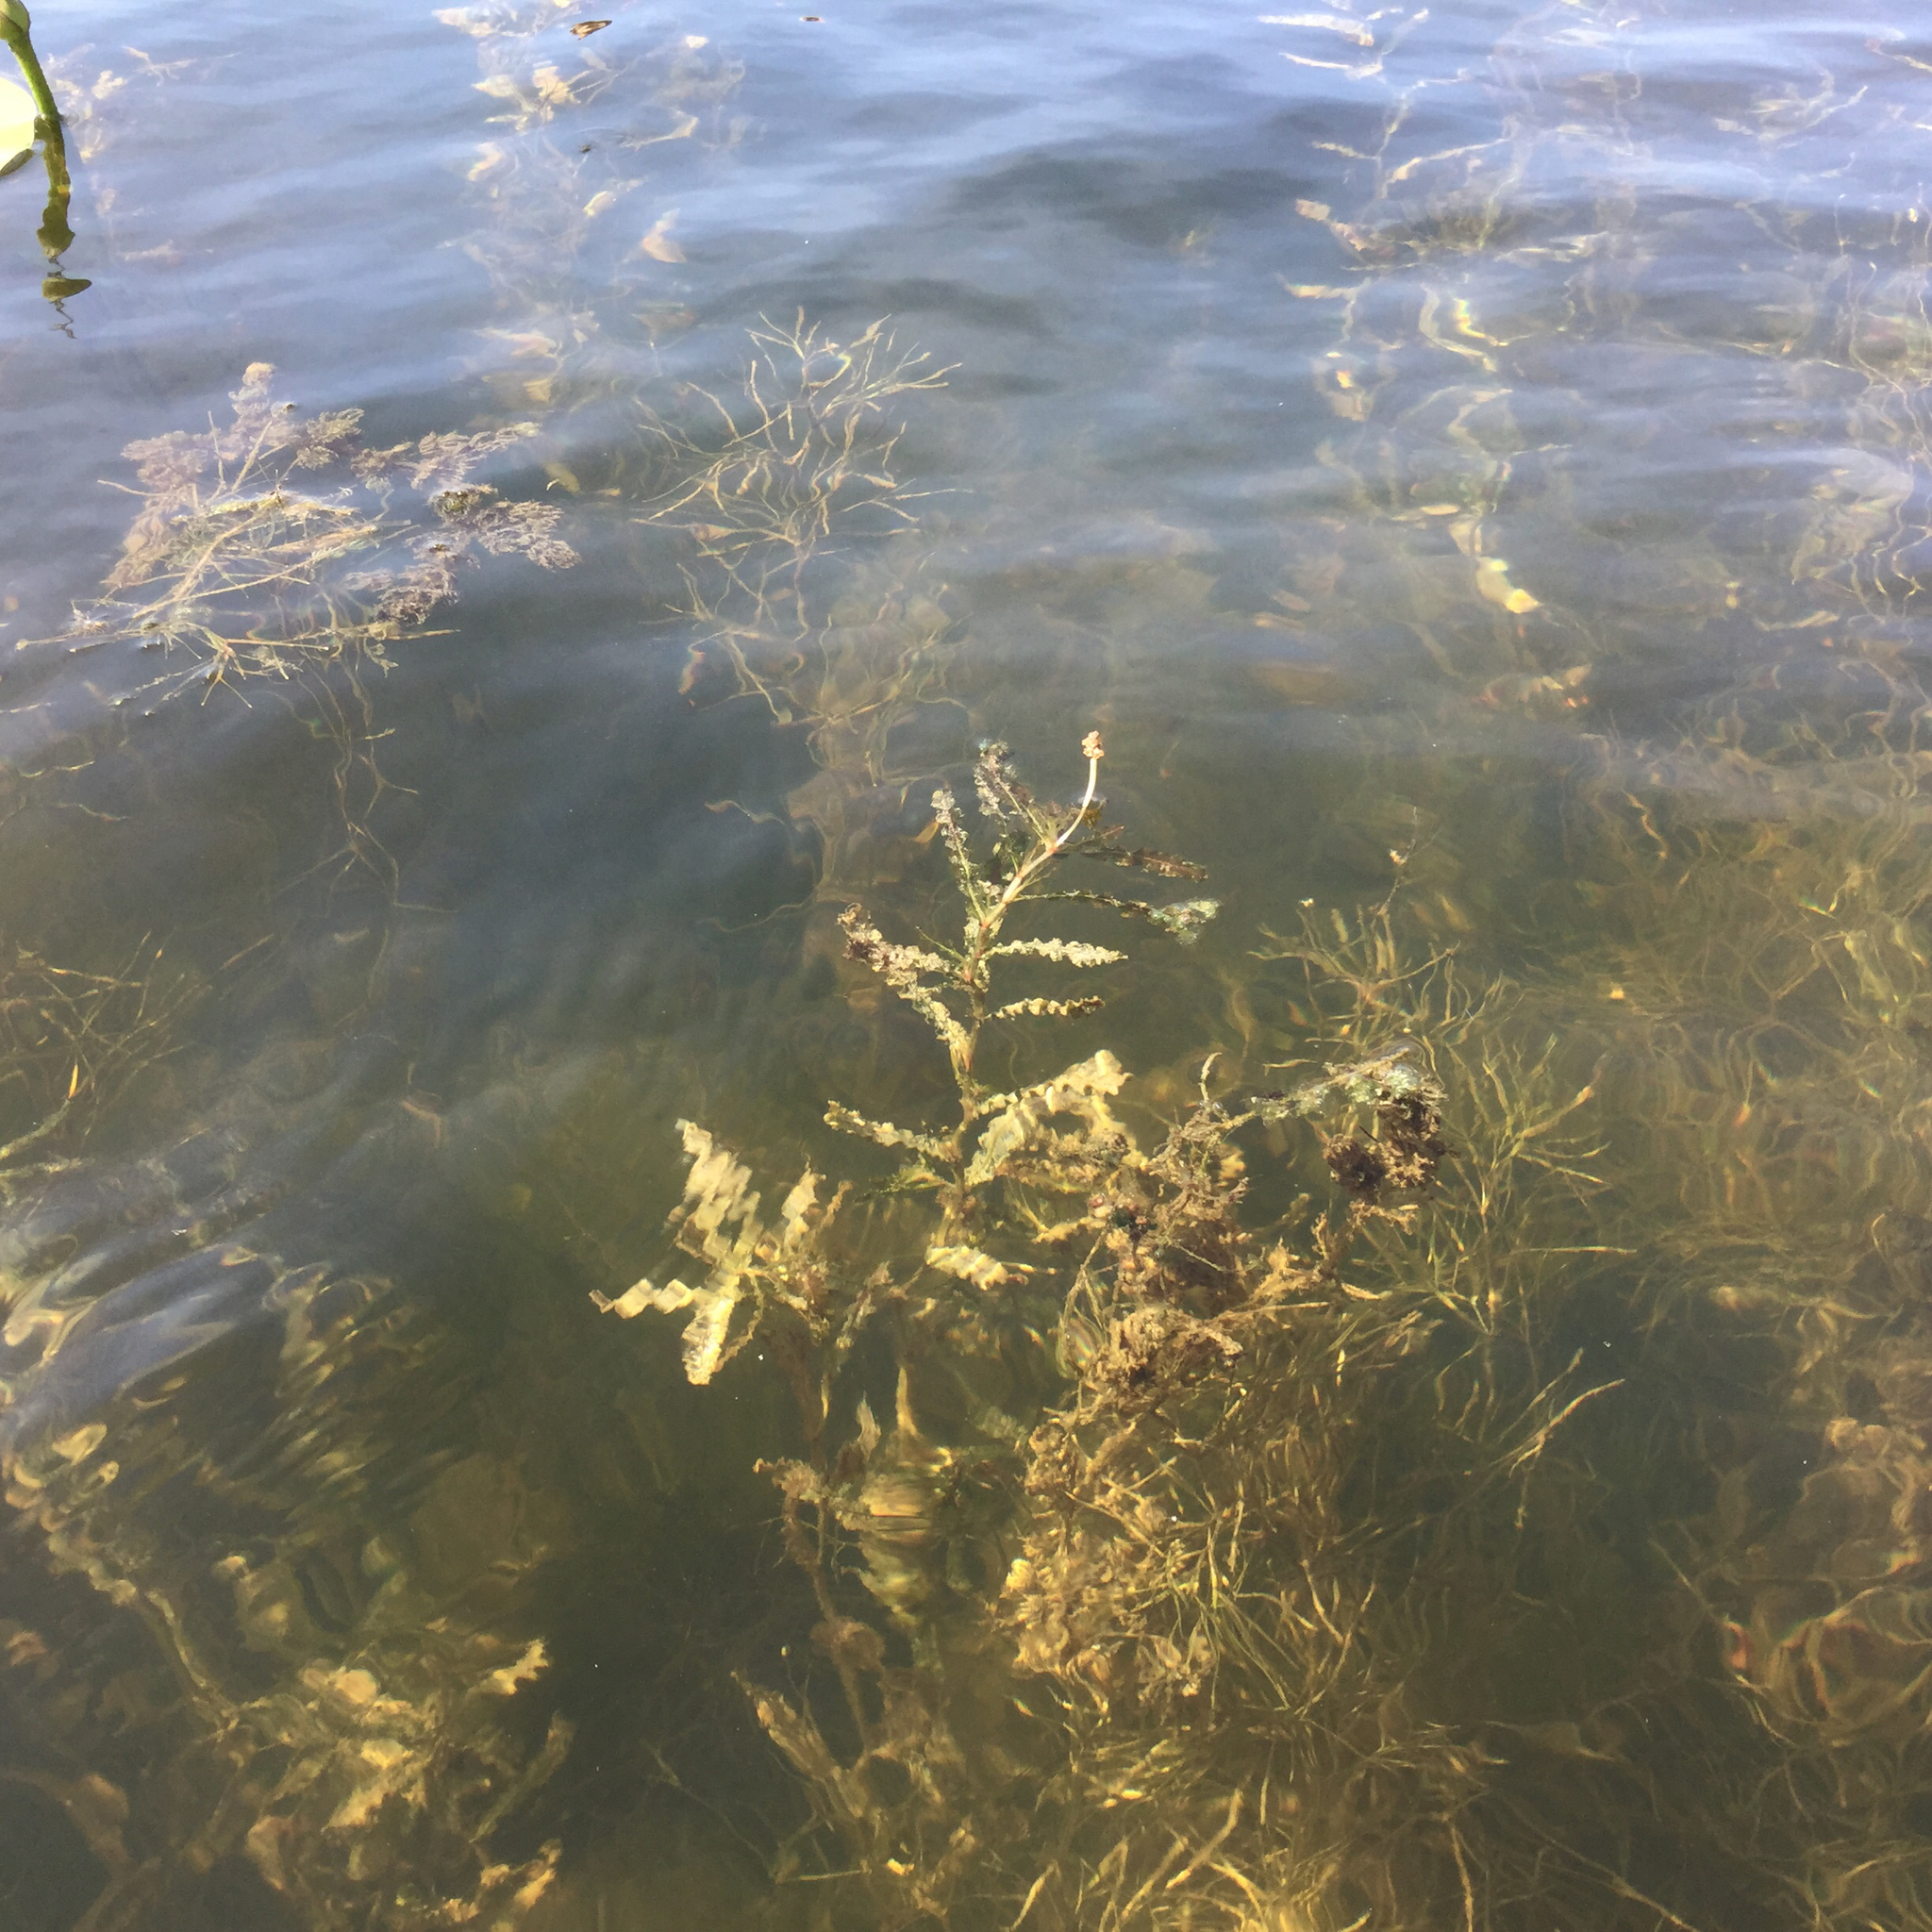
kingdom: Plantae
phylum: Tracheophyta
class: Liliopsida
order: Alismatales
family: Potamogetonaceae
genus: Potamogeton
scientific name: Potamogeton crispus
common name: Curled pondweed
